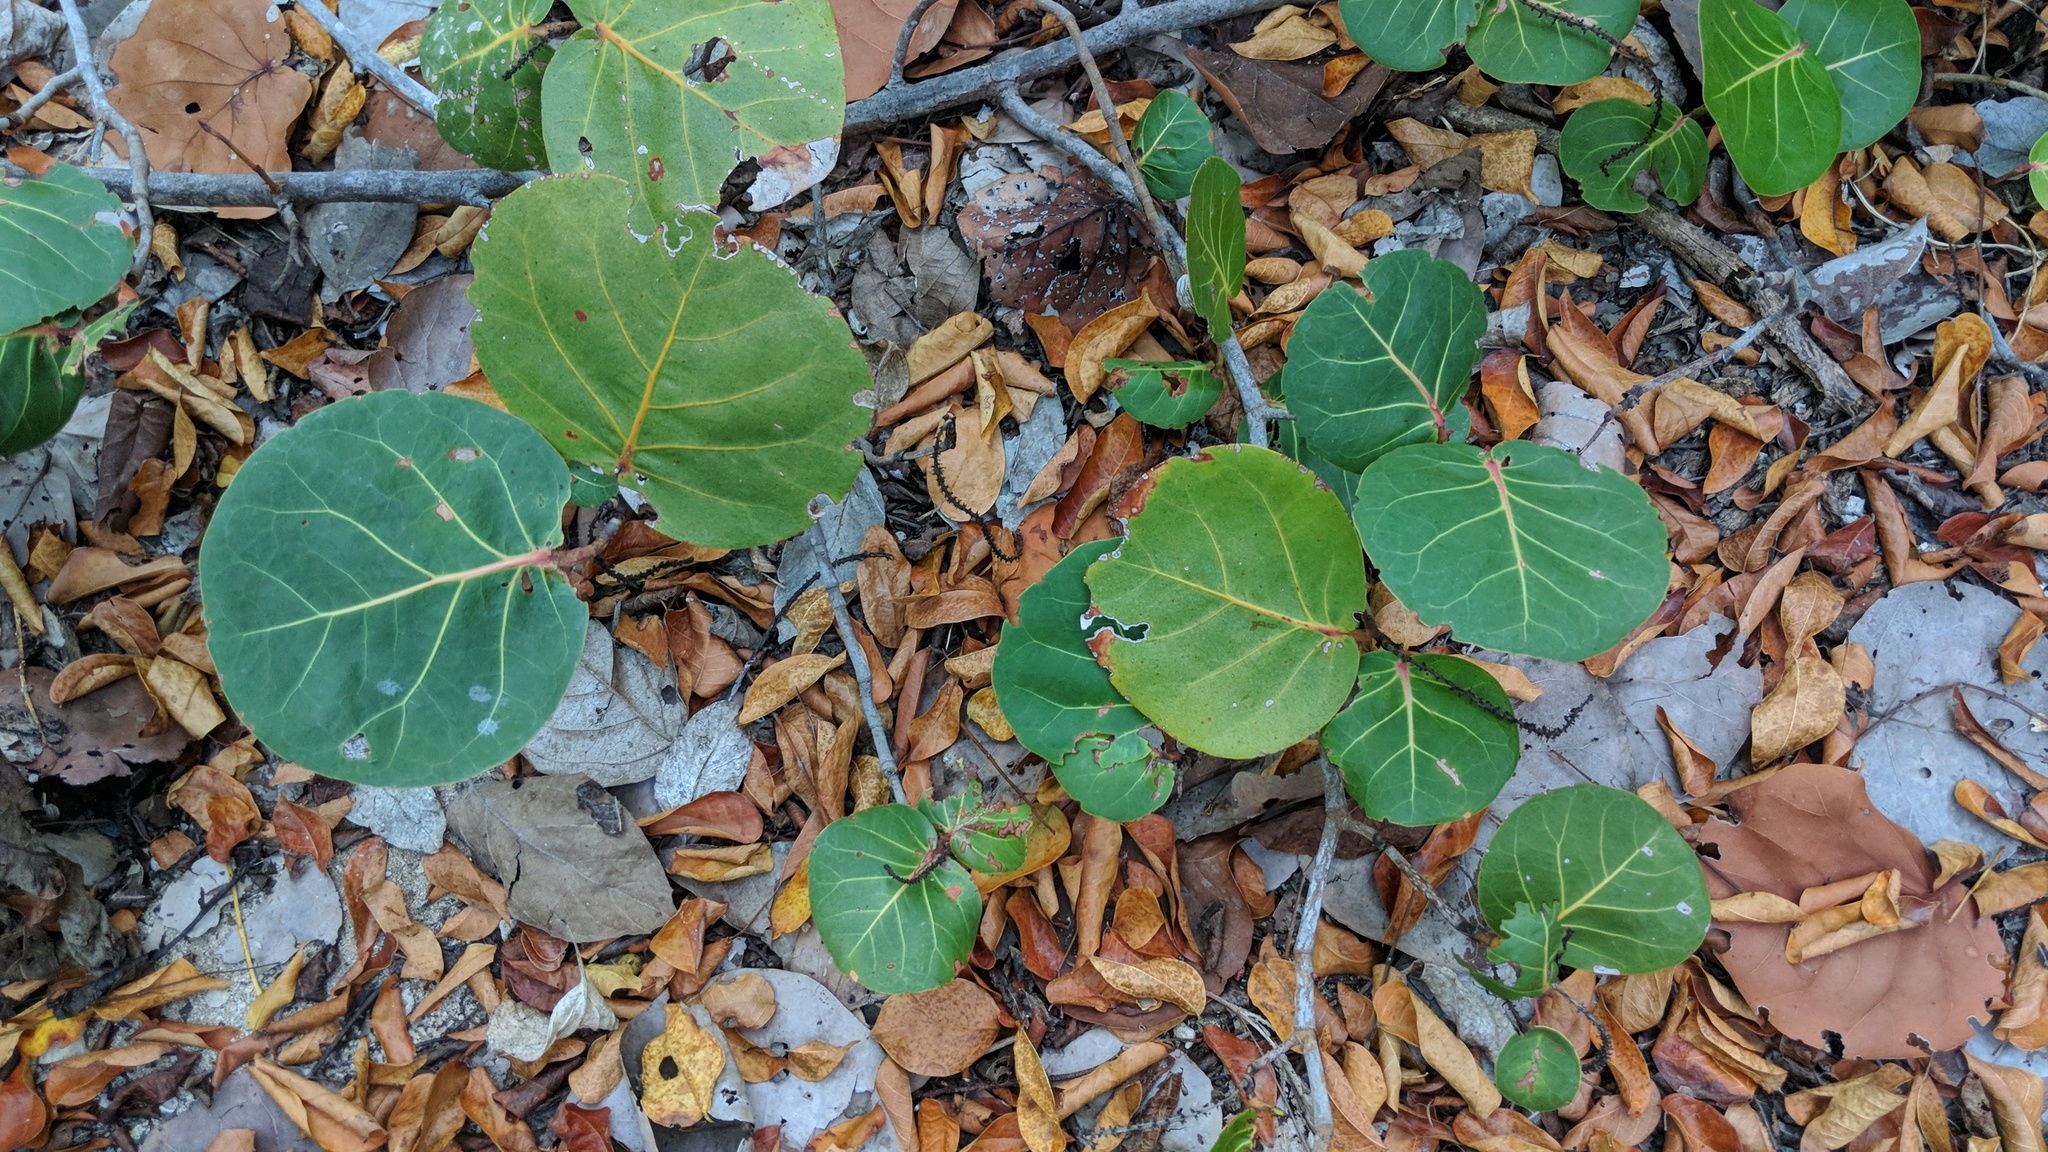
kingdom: Plantae
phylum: Tracheophyta
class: Magnoliopsida
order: Caryophyllales
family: Polygonaceae
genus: Coccoloba
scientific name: Coccoloba uvifera
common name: Seagrape
